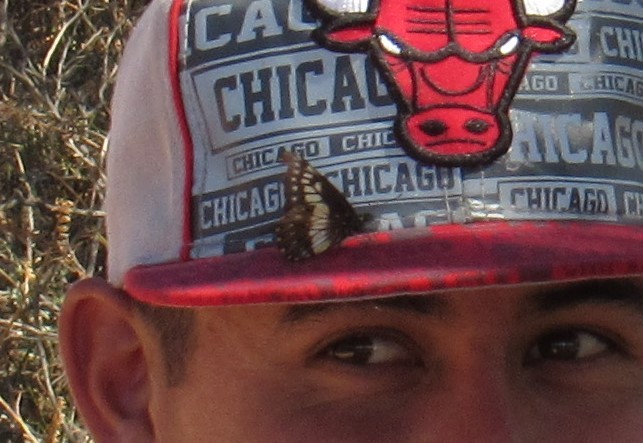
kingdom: Animalia
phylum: Arthropoda
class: Insecta
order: Lepidoptera
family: Pieridae
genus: Archonias
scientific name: Archonias nimbice
